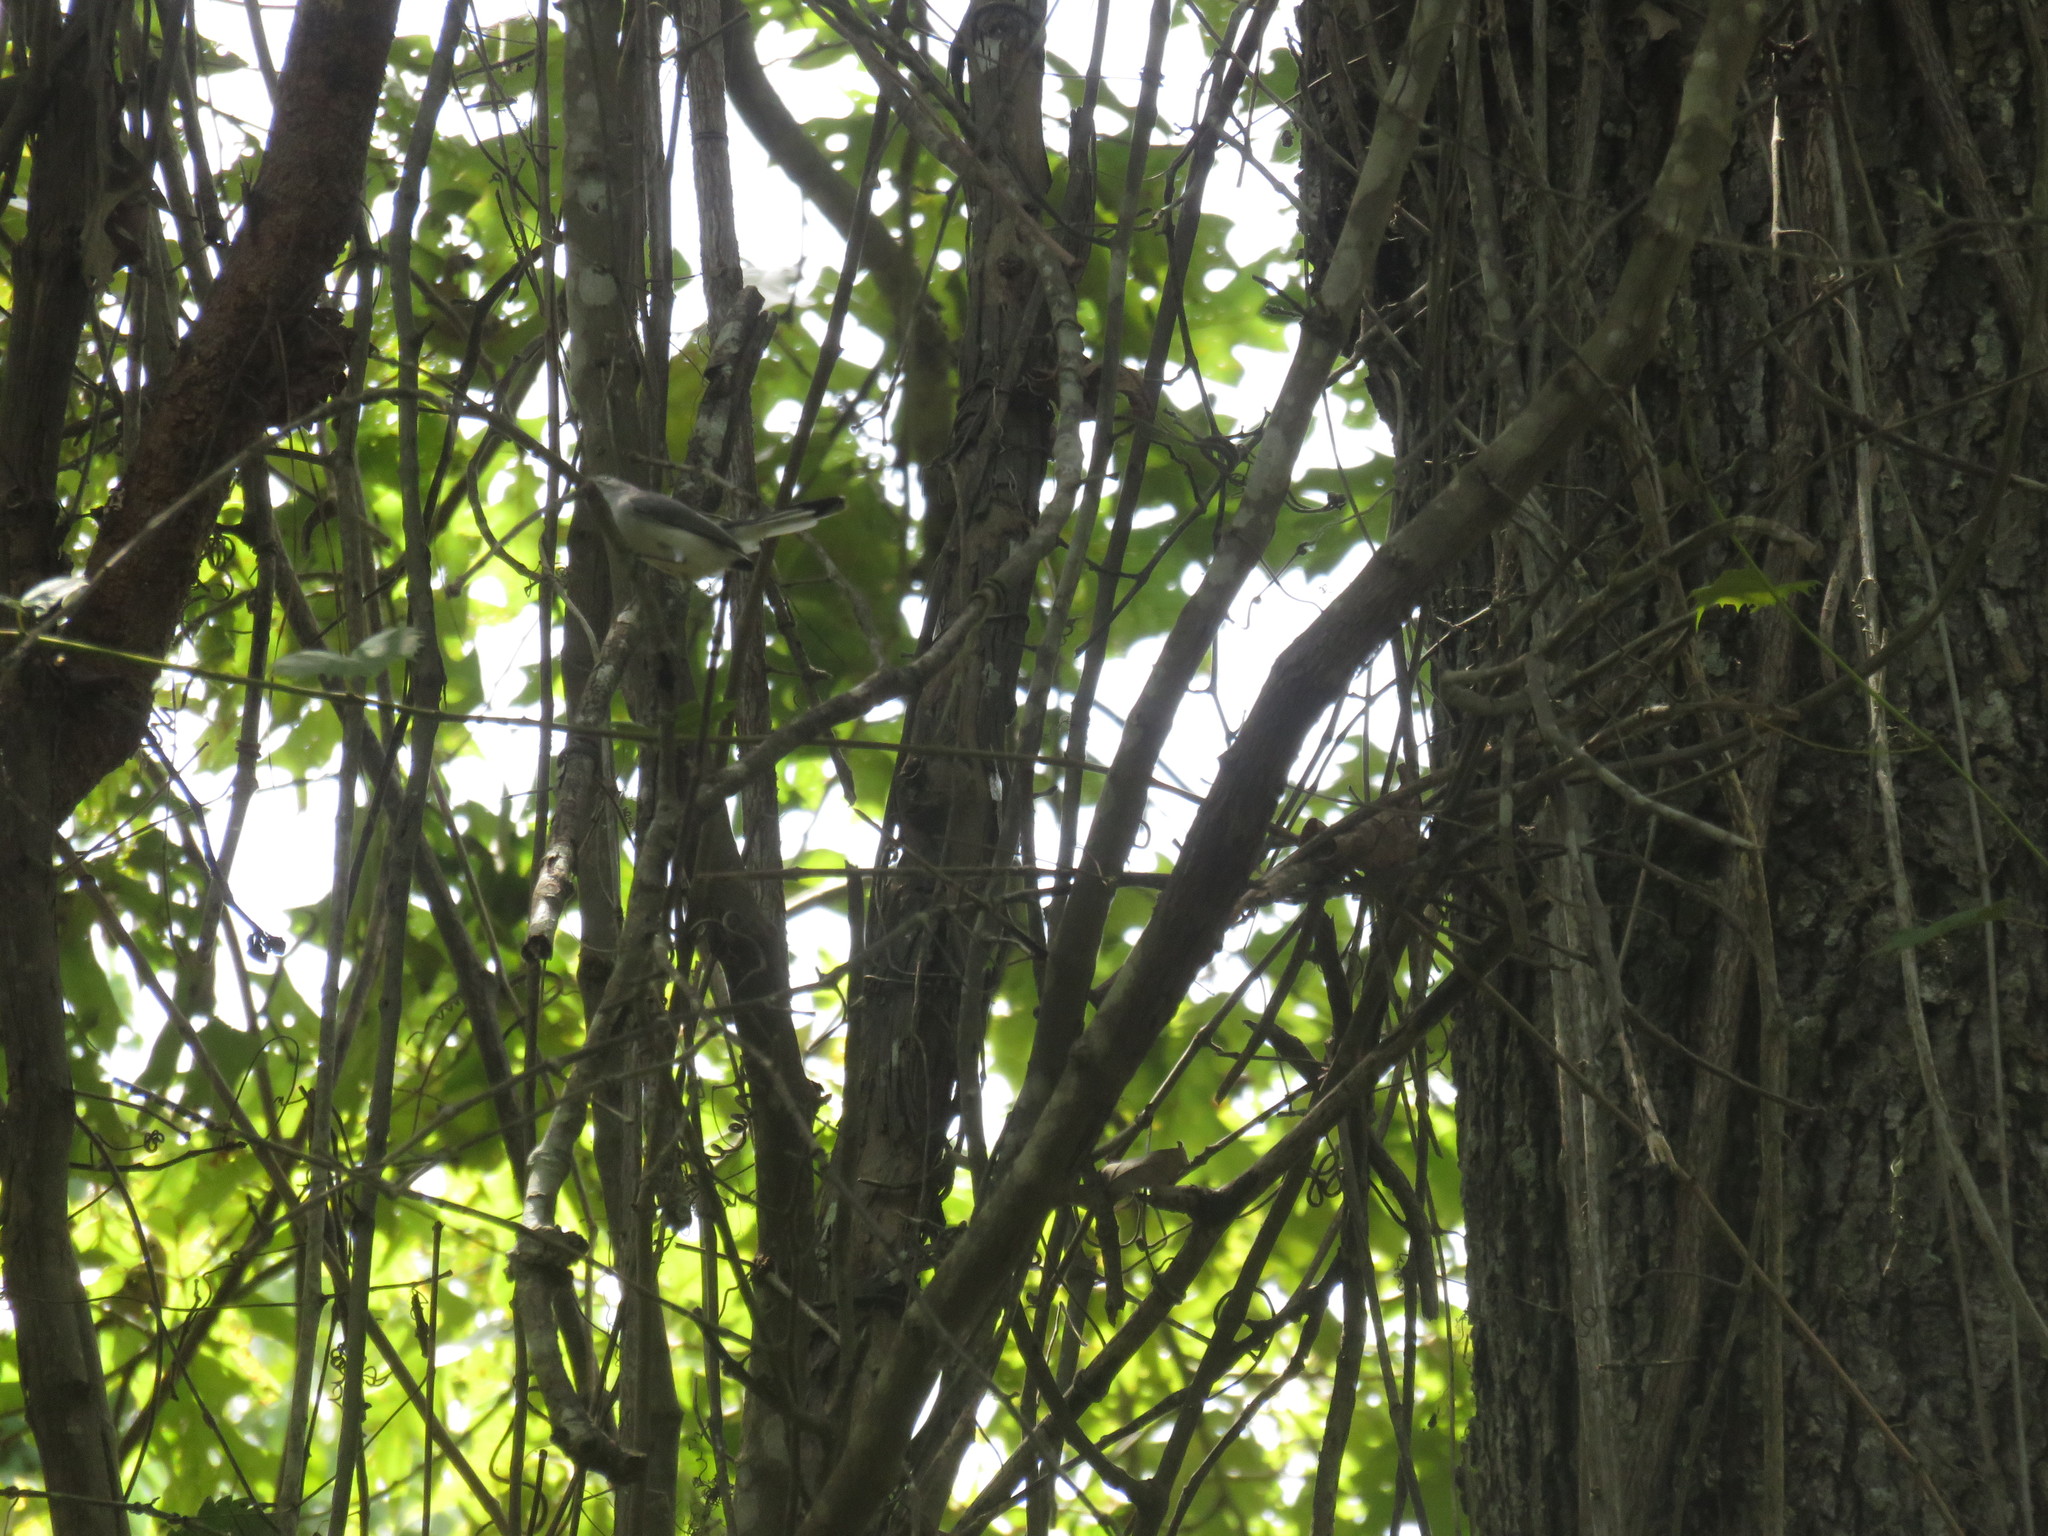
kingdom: Animalia
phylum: Chordata
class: Aves
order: Passeriformes
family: Polioptilidae
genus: Polioptila
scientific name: Polioptila caerulea
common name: Blue-gray gnatcatcher
